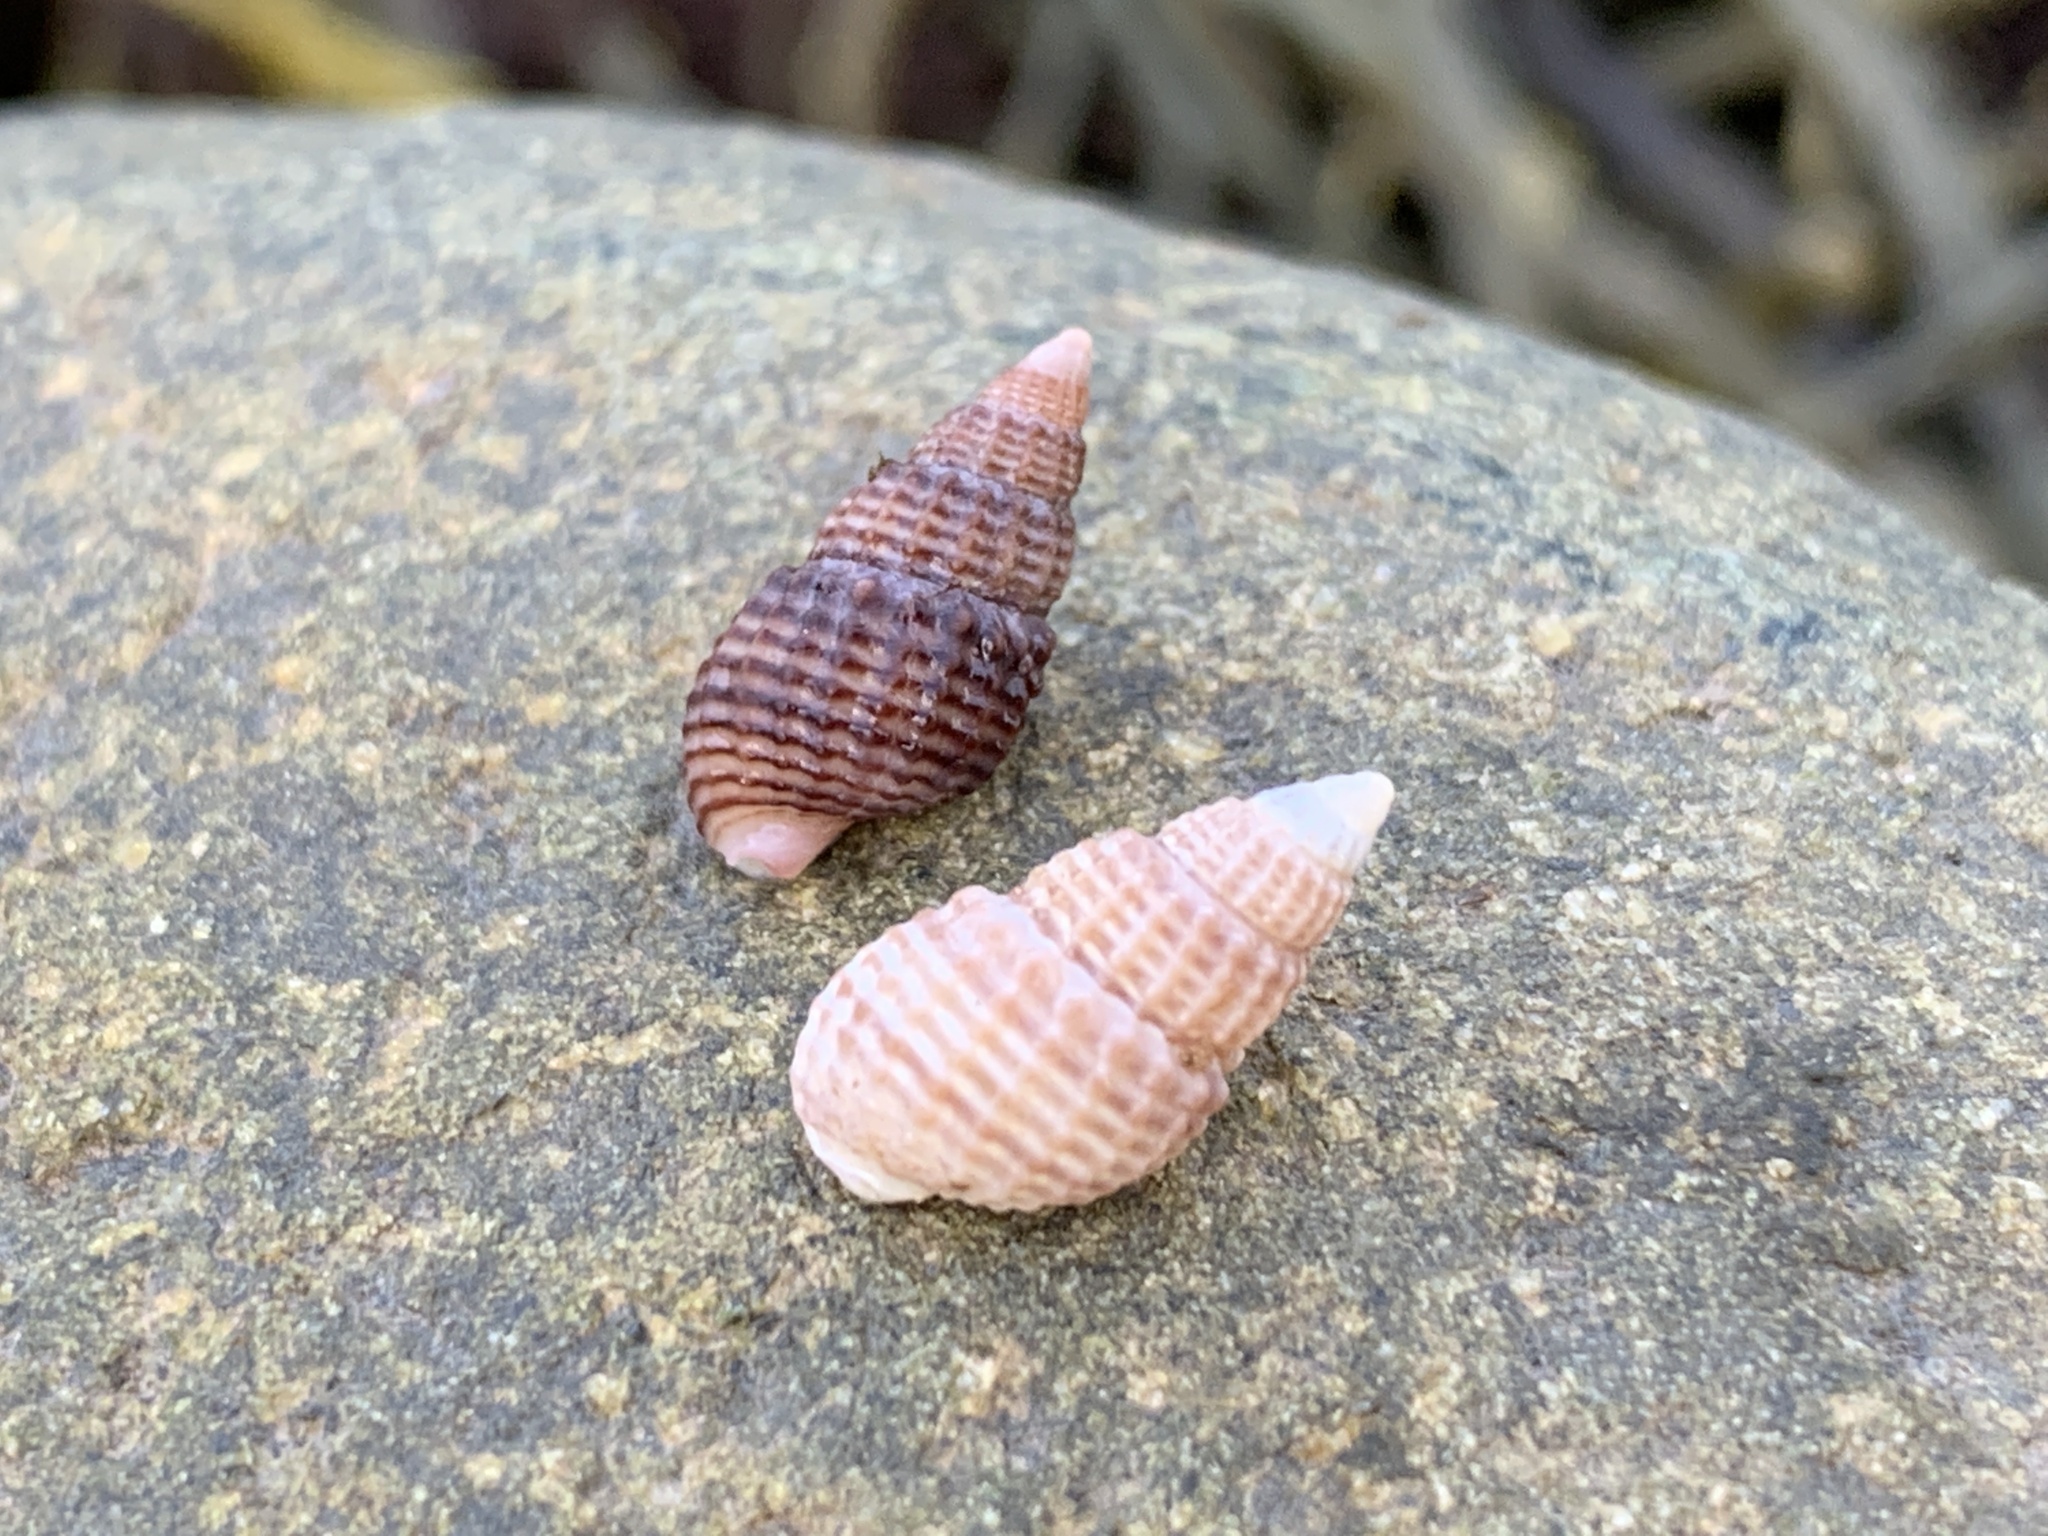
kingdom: Animalia
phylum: Mollusca
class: Gastropoda
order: Neogastropoda
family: Nassariidae
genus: Ilyanassa
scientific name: Ilyanassa trivittata
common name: Three-line mudsnail
